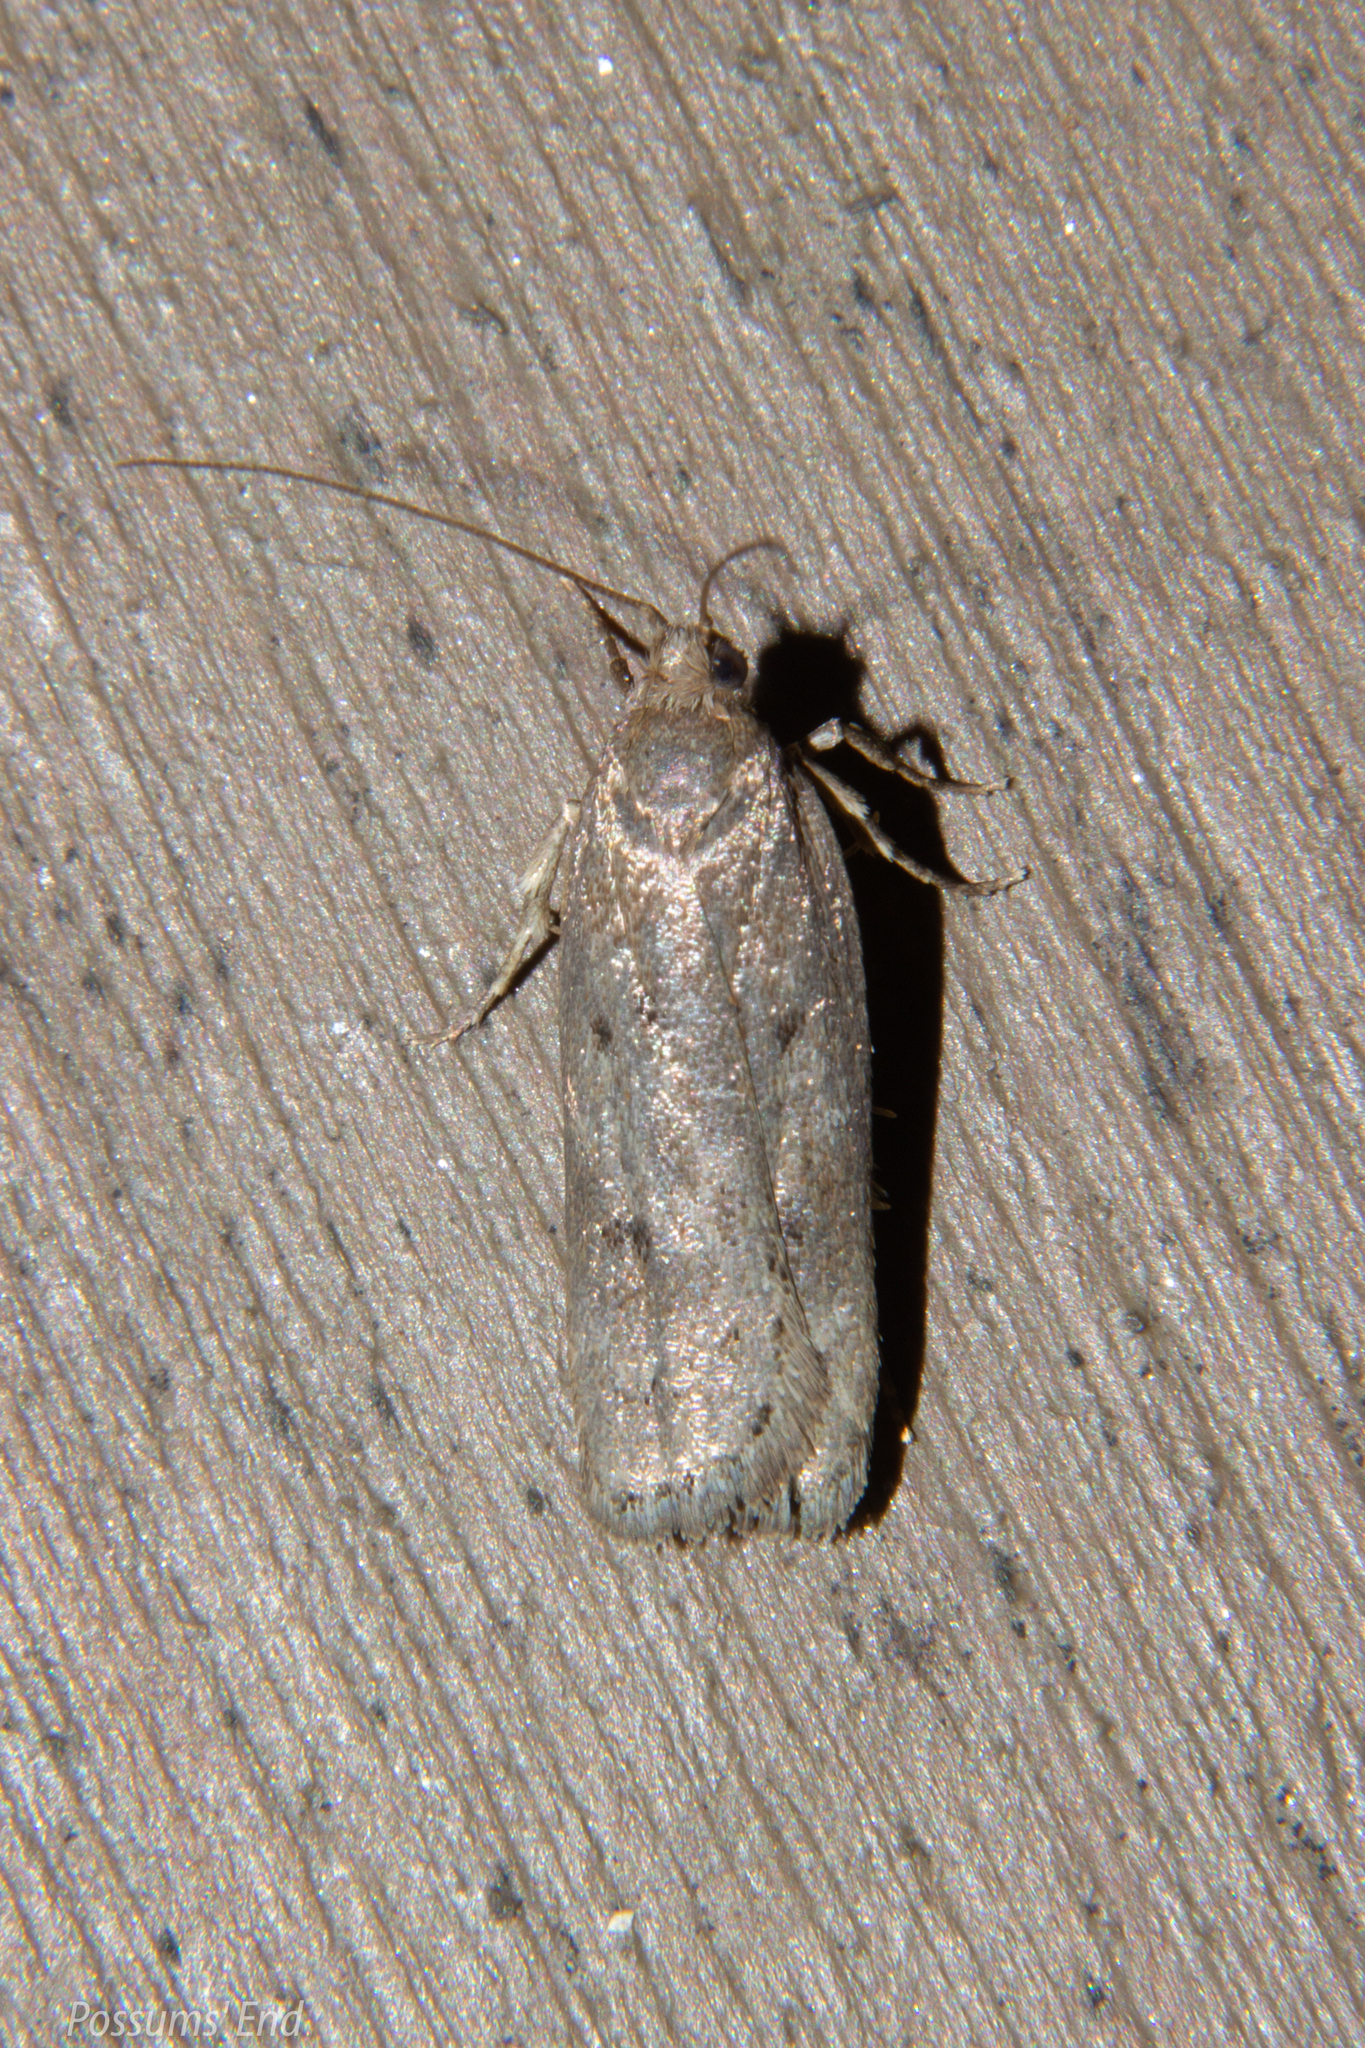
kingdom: Animalia
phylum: Arthropoda
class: Insecta
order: Lepidoptera
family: Depressariidae
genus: Phaeosaces
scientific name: Phaeosaces apocrypta
